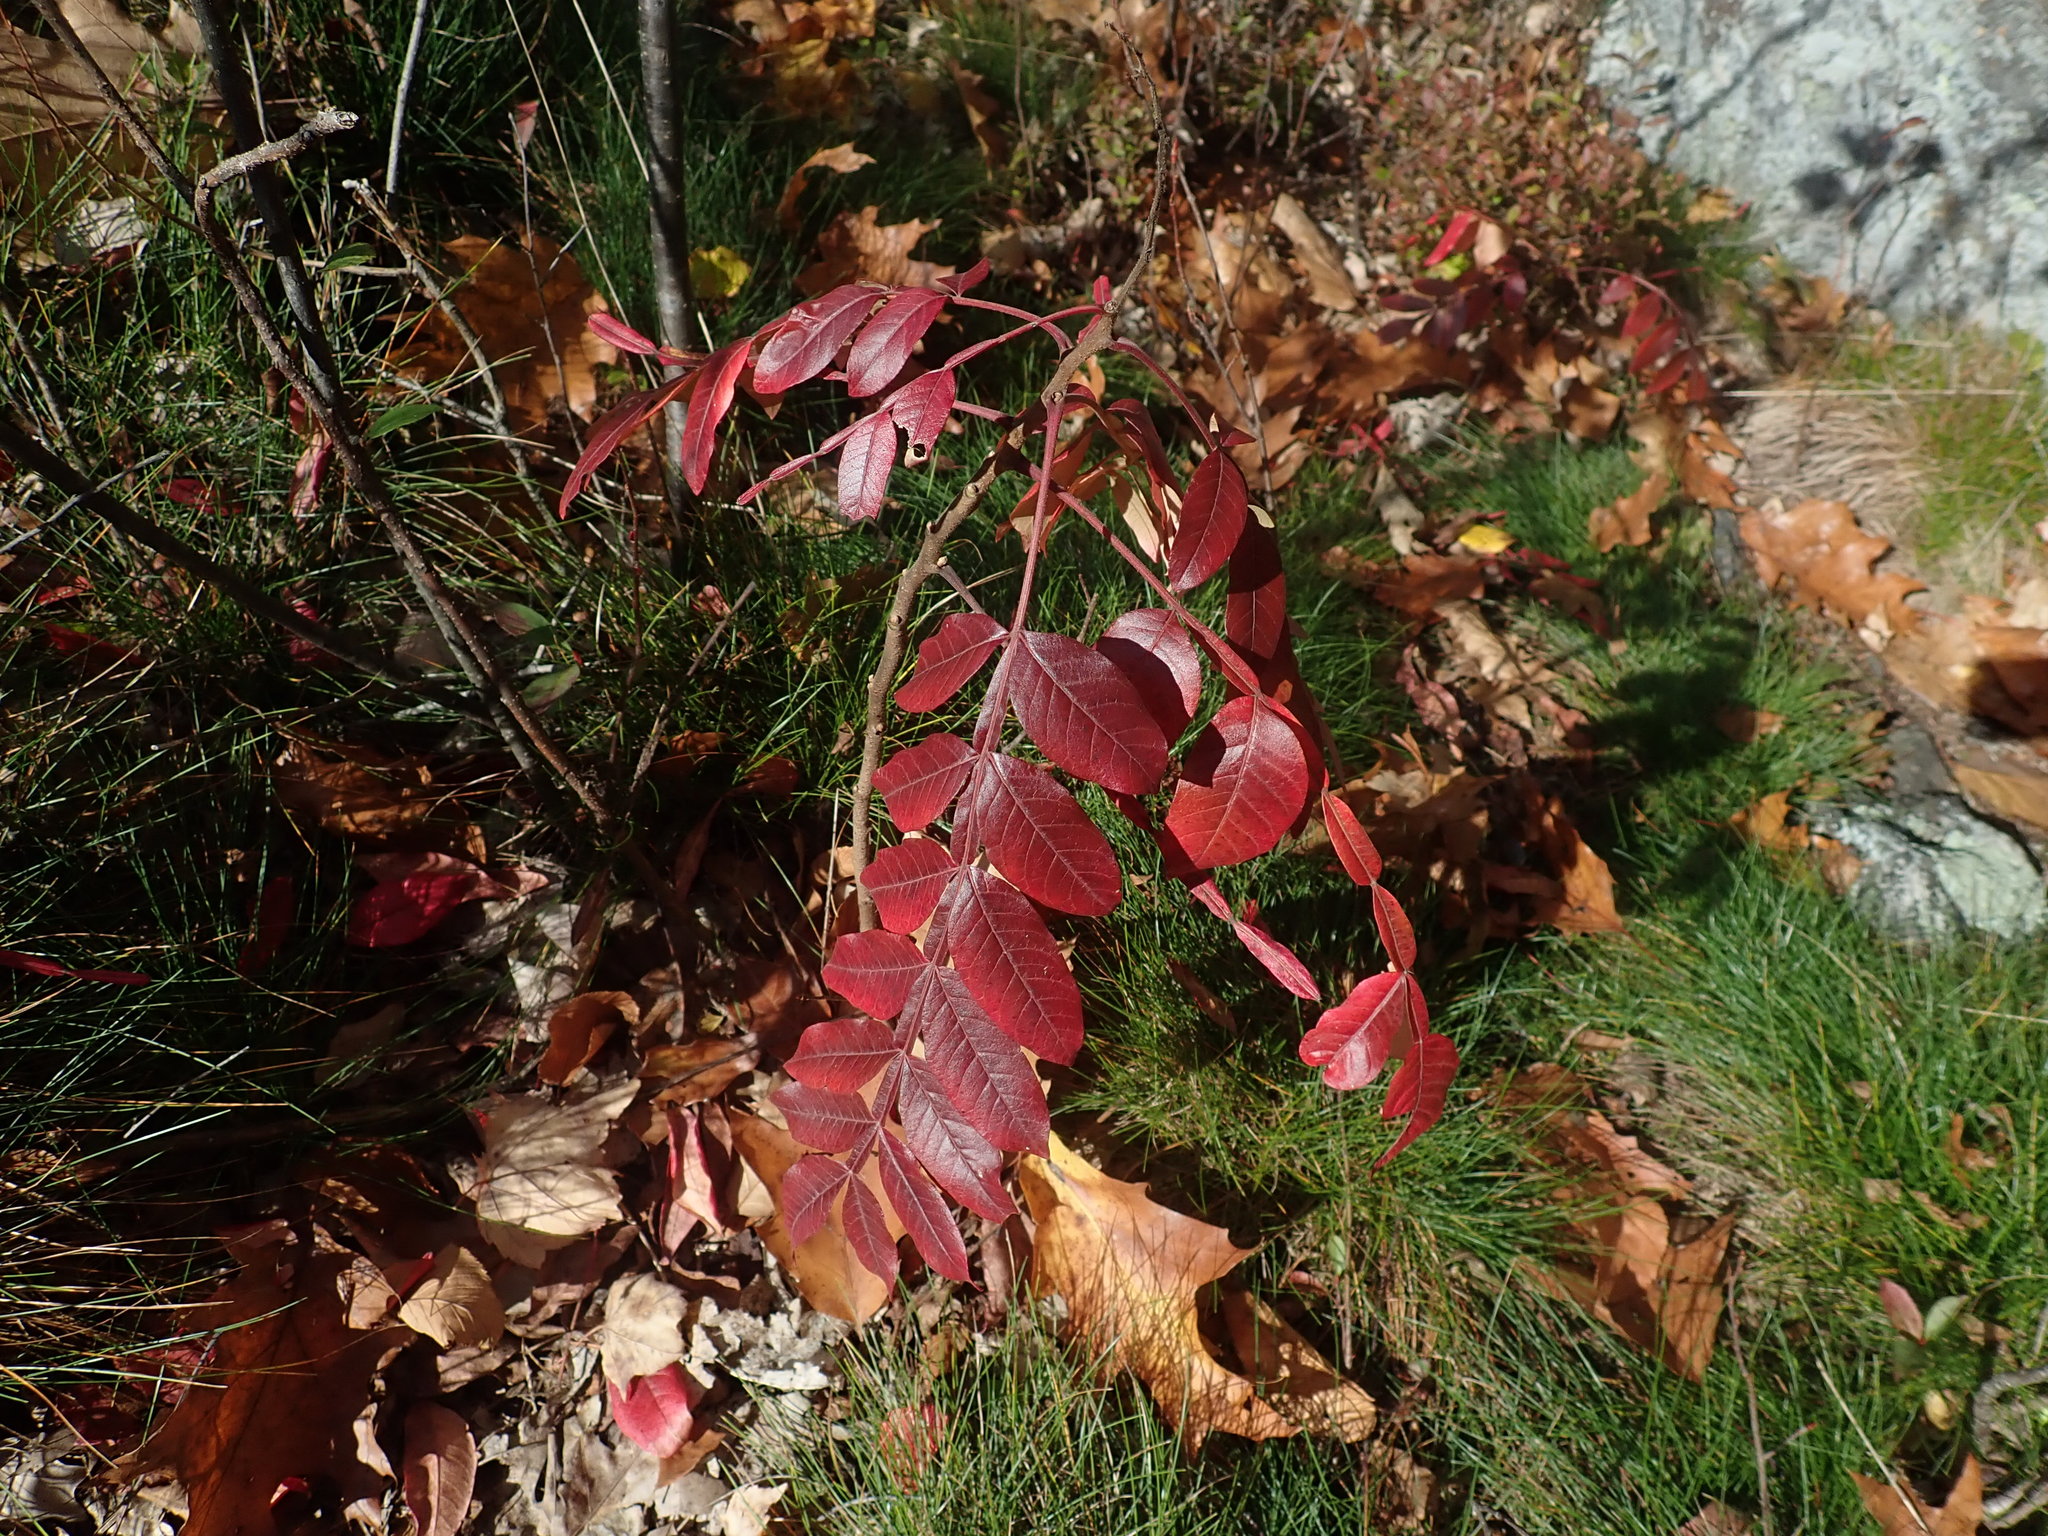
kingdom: Plantae
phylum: Tracheophyta
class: Magnoliopsida
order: Sapindales
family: Anacardiaceae
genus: Rhus
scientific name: Rhus copallina
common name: Shining sumac
